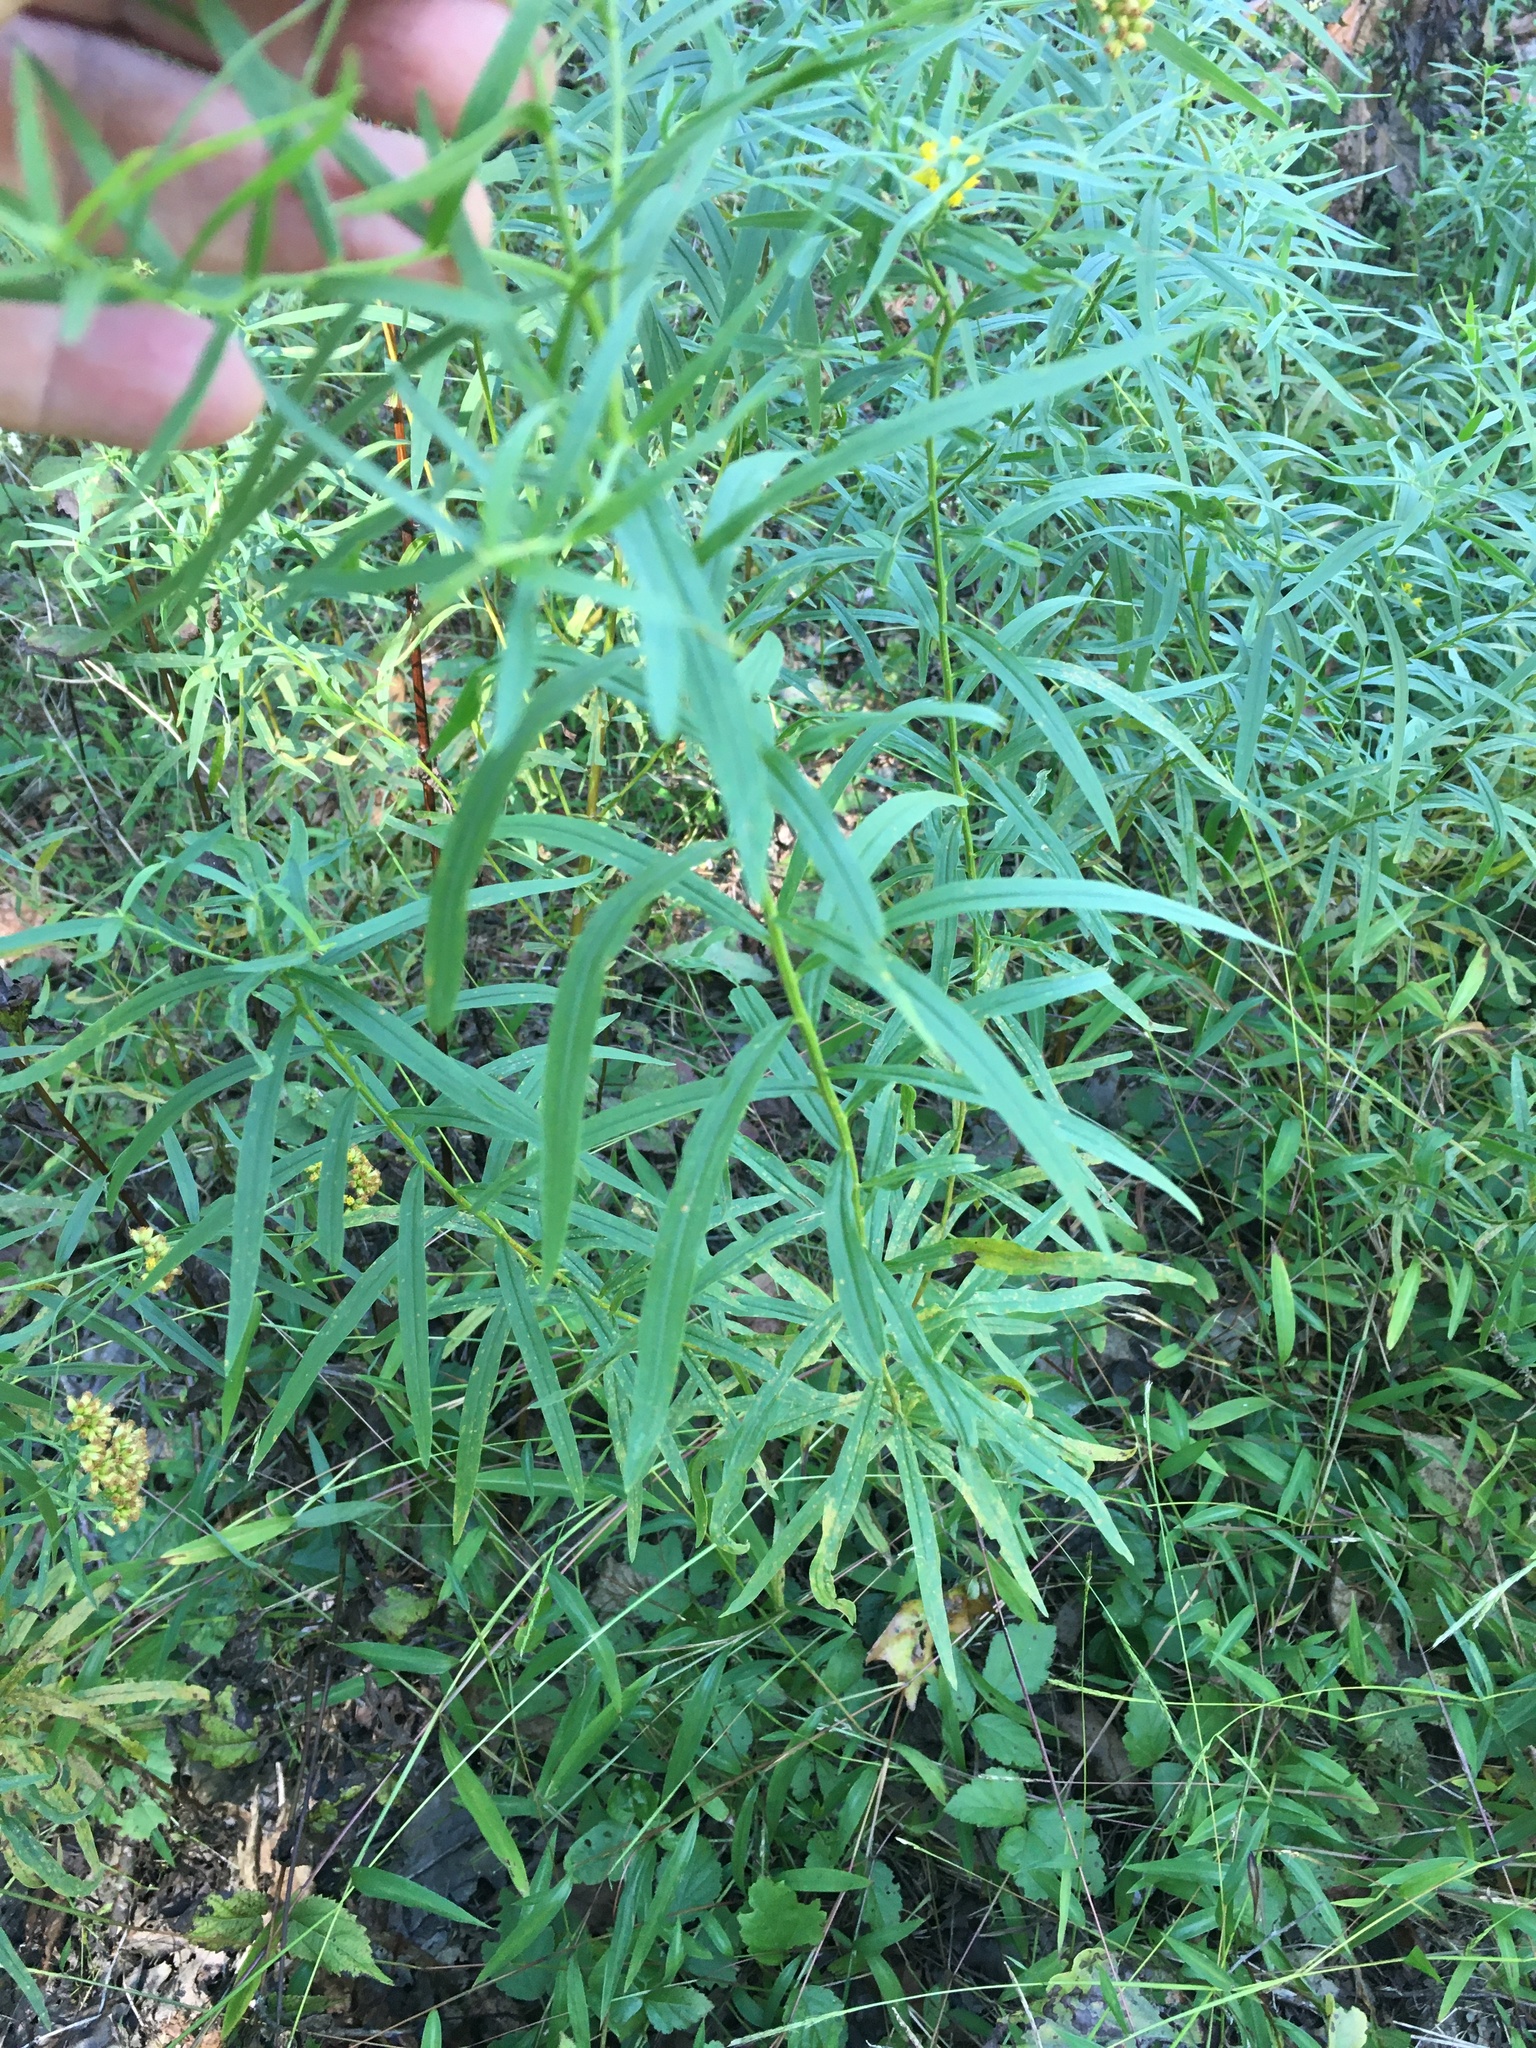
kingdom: Plantae
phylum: Tracheophyta
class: Magnoliopsida
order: Asterales
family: Asteraceae
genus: Euthamia
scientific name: Euthamia graminifolia
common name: Common goldentop
